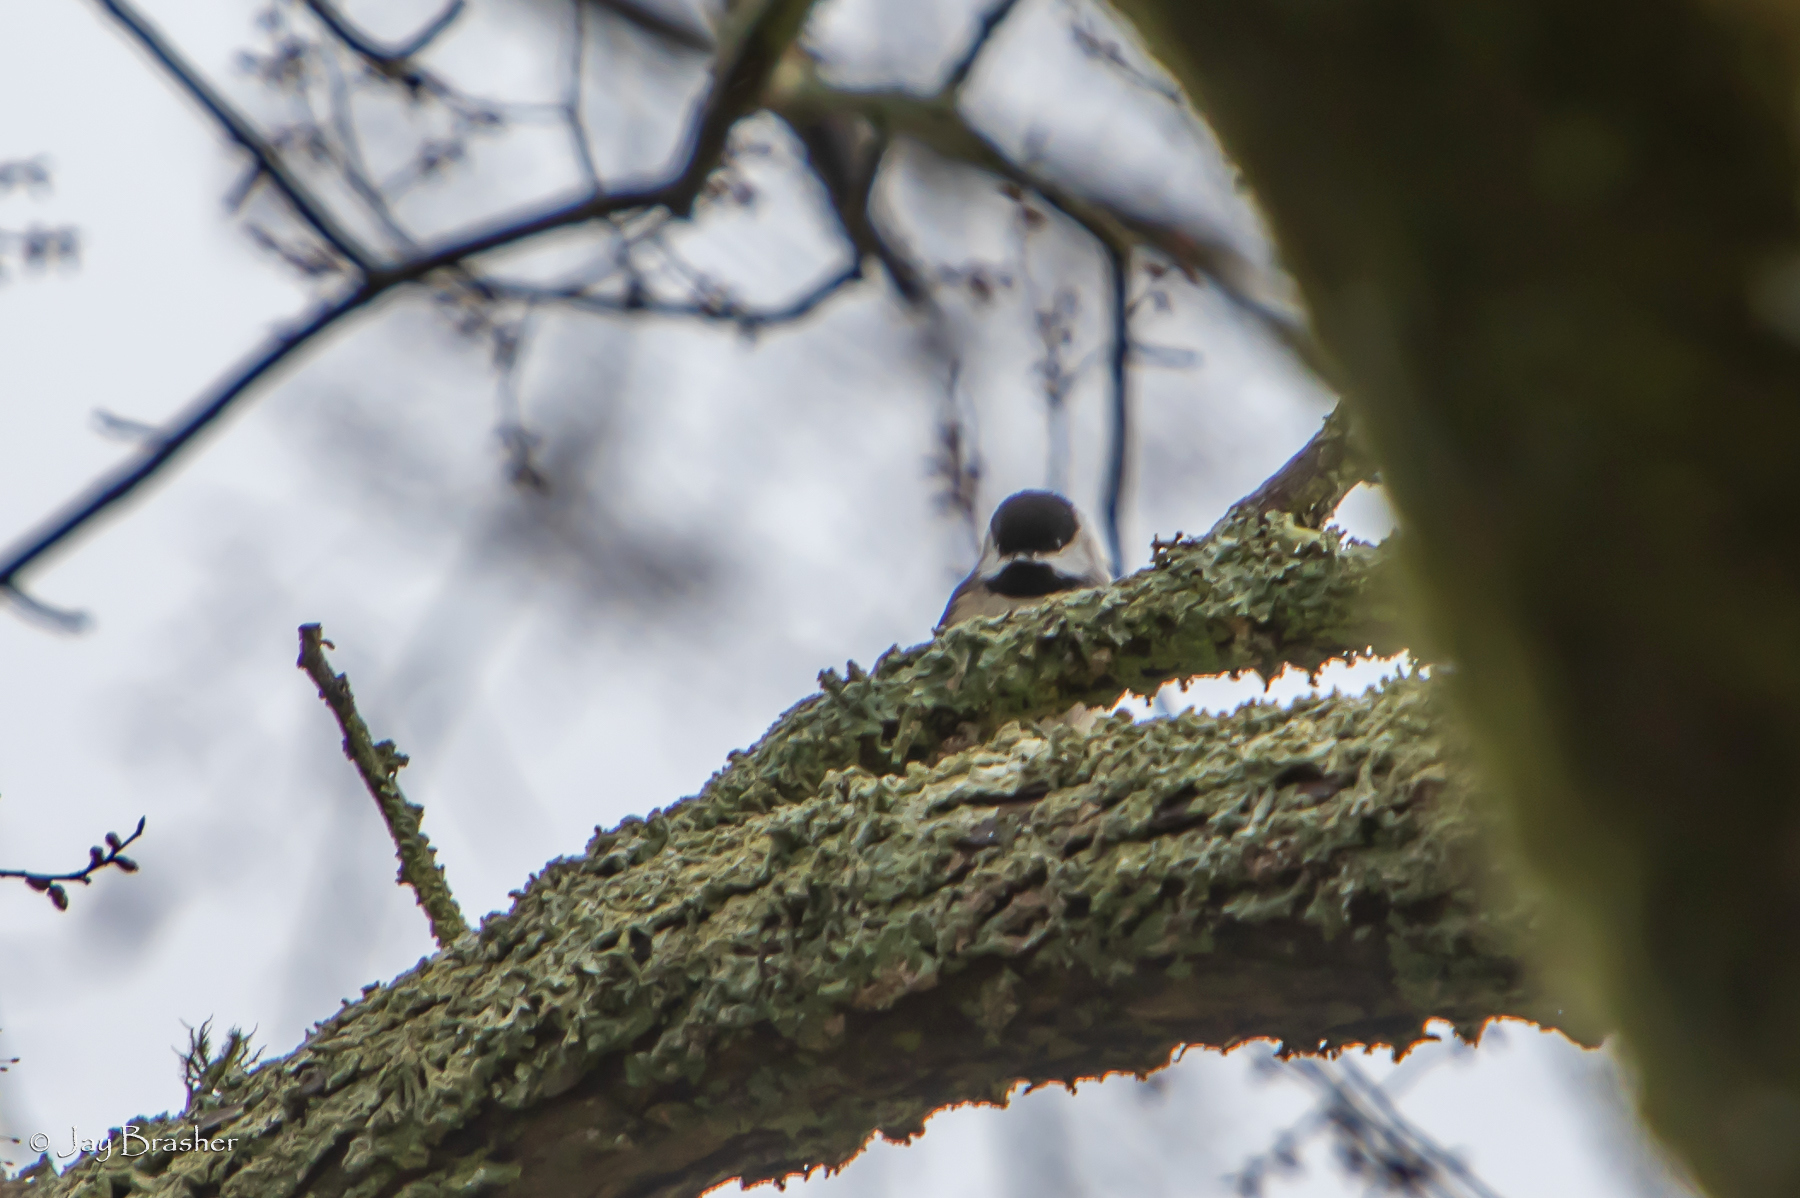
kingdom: Animalia
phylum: Chordata
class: Aves
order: Passeriformes
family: Paridae
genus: Poecile
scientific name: Poecile carolinensis
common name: Carolina chickadee
